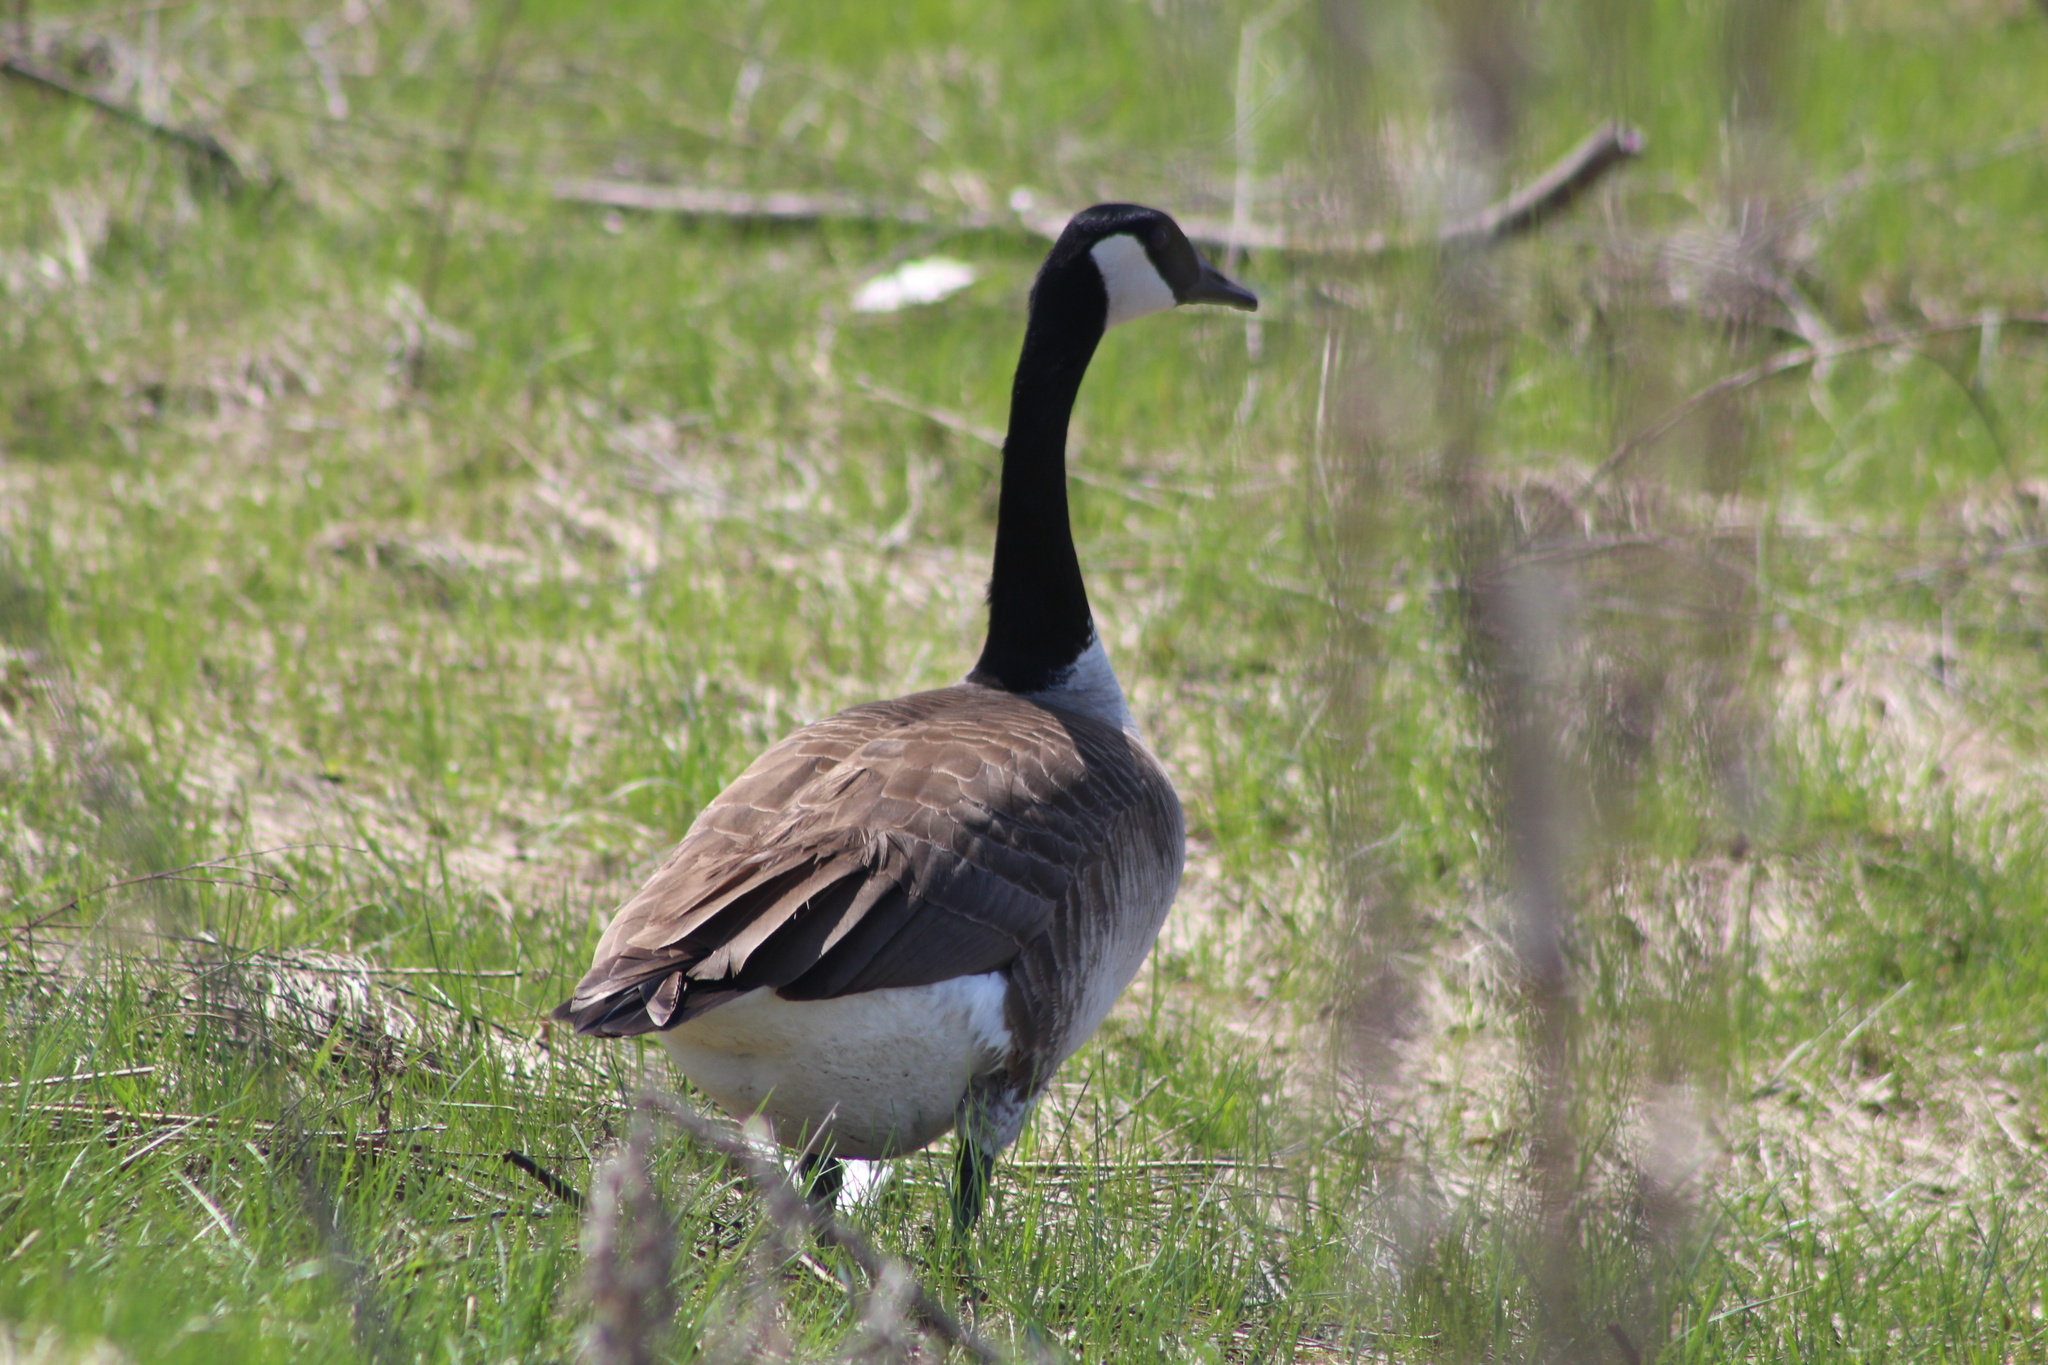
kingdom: Animalia
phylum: Chordata
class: Aves
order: Anseriformes
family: Anatidae
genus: Branta
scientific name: Branta canadensis
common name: Canada goose
